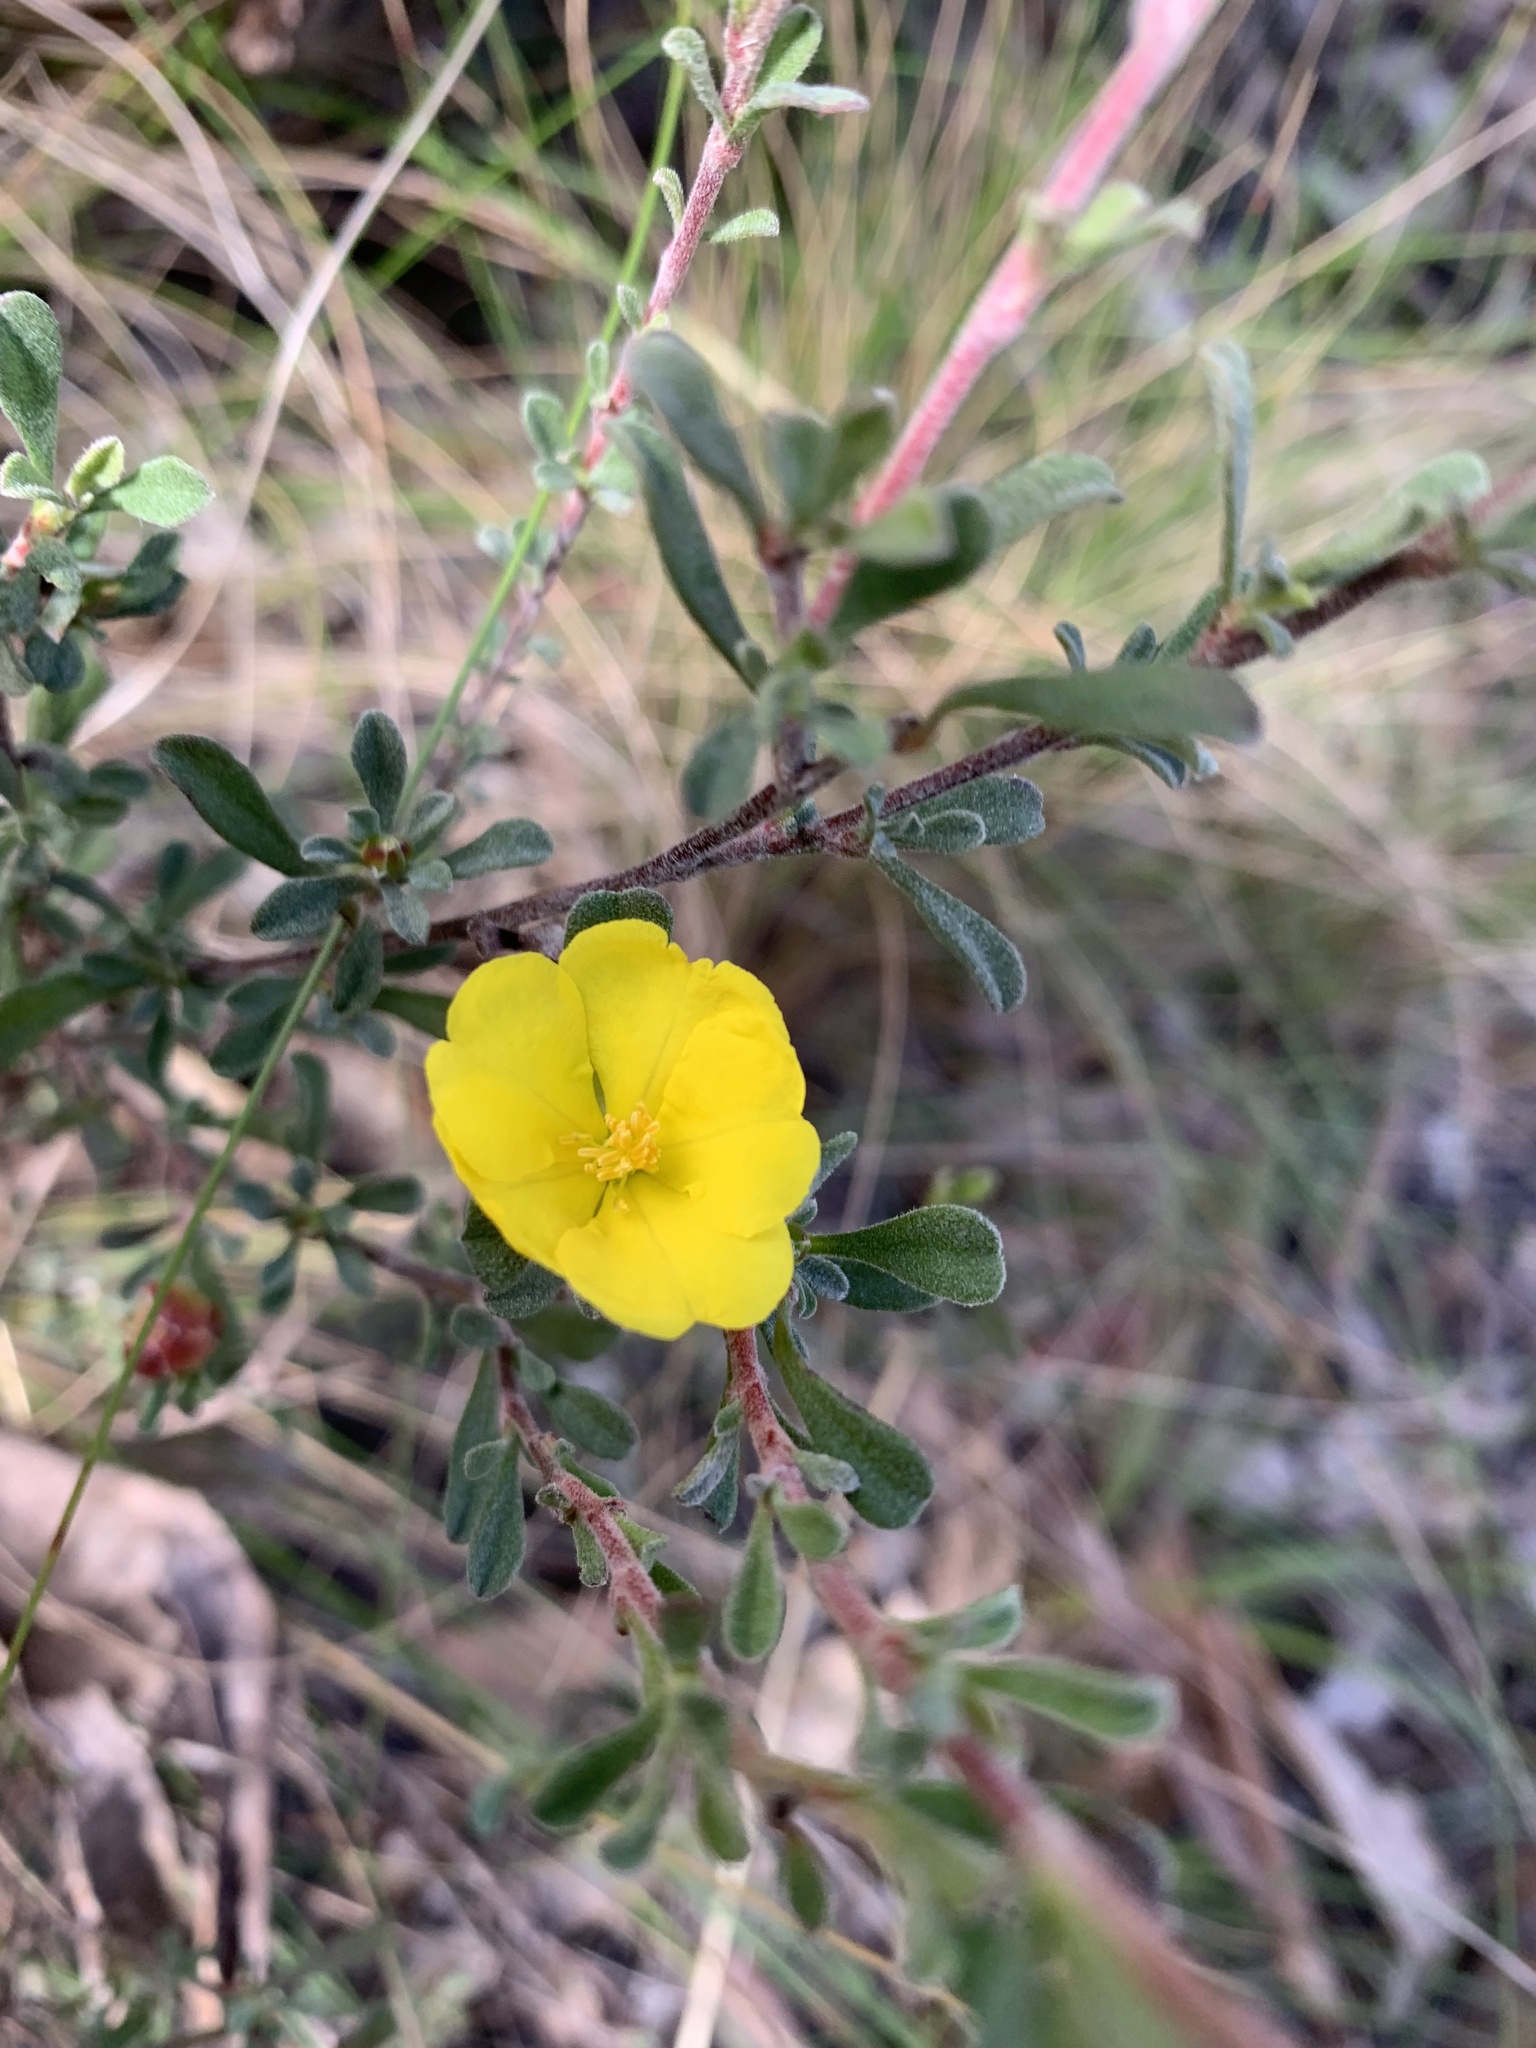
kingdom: Plantae
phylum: Tracheophyta
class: Magnoliopsida
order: Dilleniales
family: Dilleniaceae
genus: Hibbertia
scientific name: Hibbertia obtusifolia
